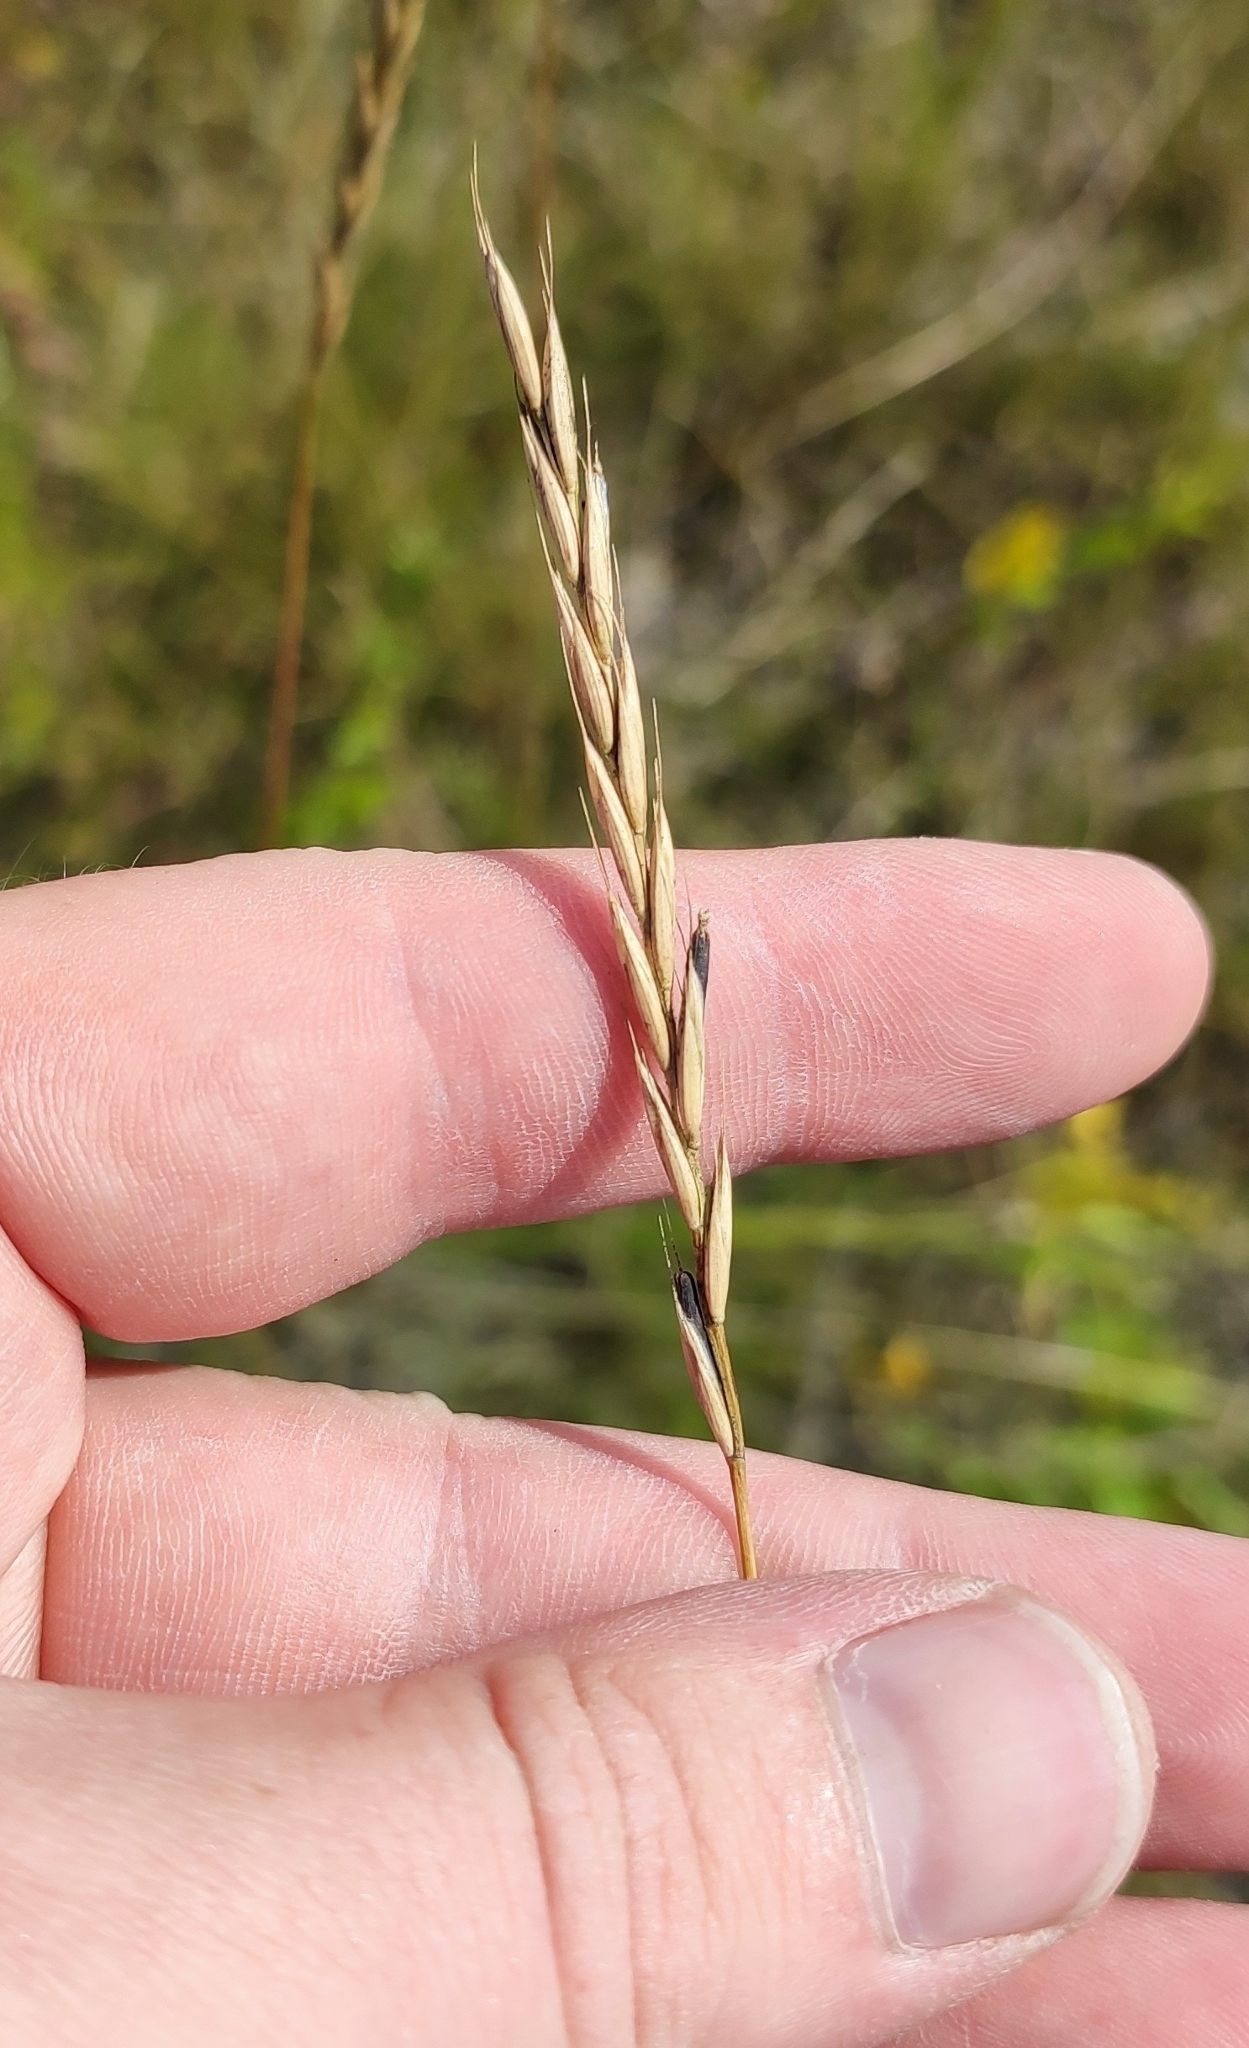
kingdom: Plantae
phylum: Tracheophyta
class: Liliopsida
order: Poales
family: Poaceae
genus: Elymus
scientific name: Elymus repens
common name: Quackgrass
